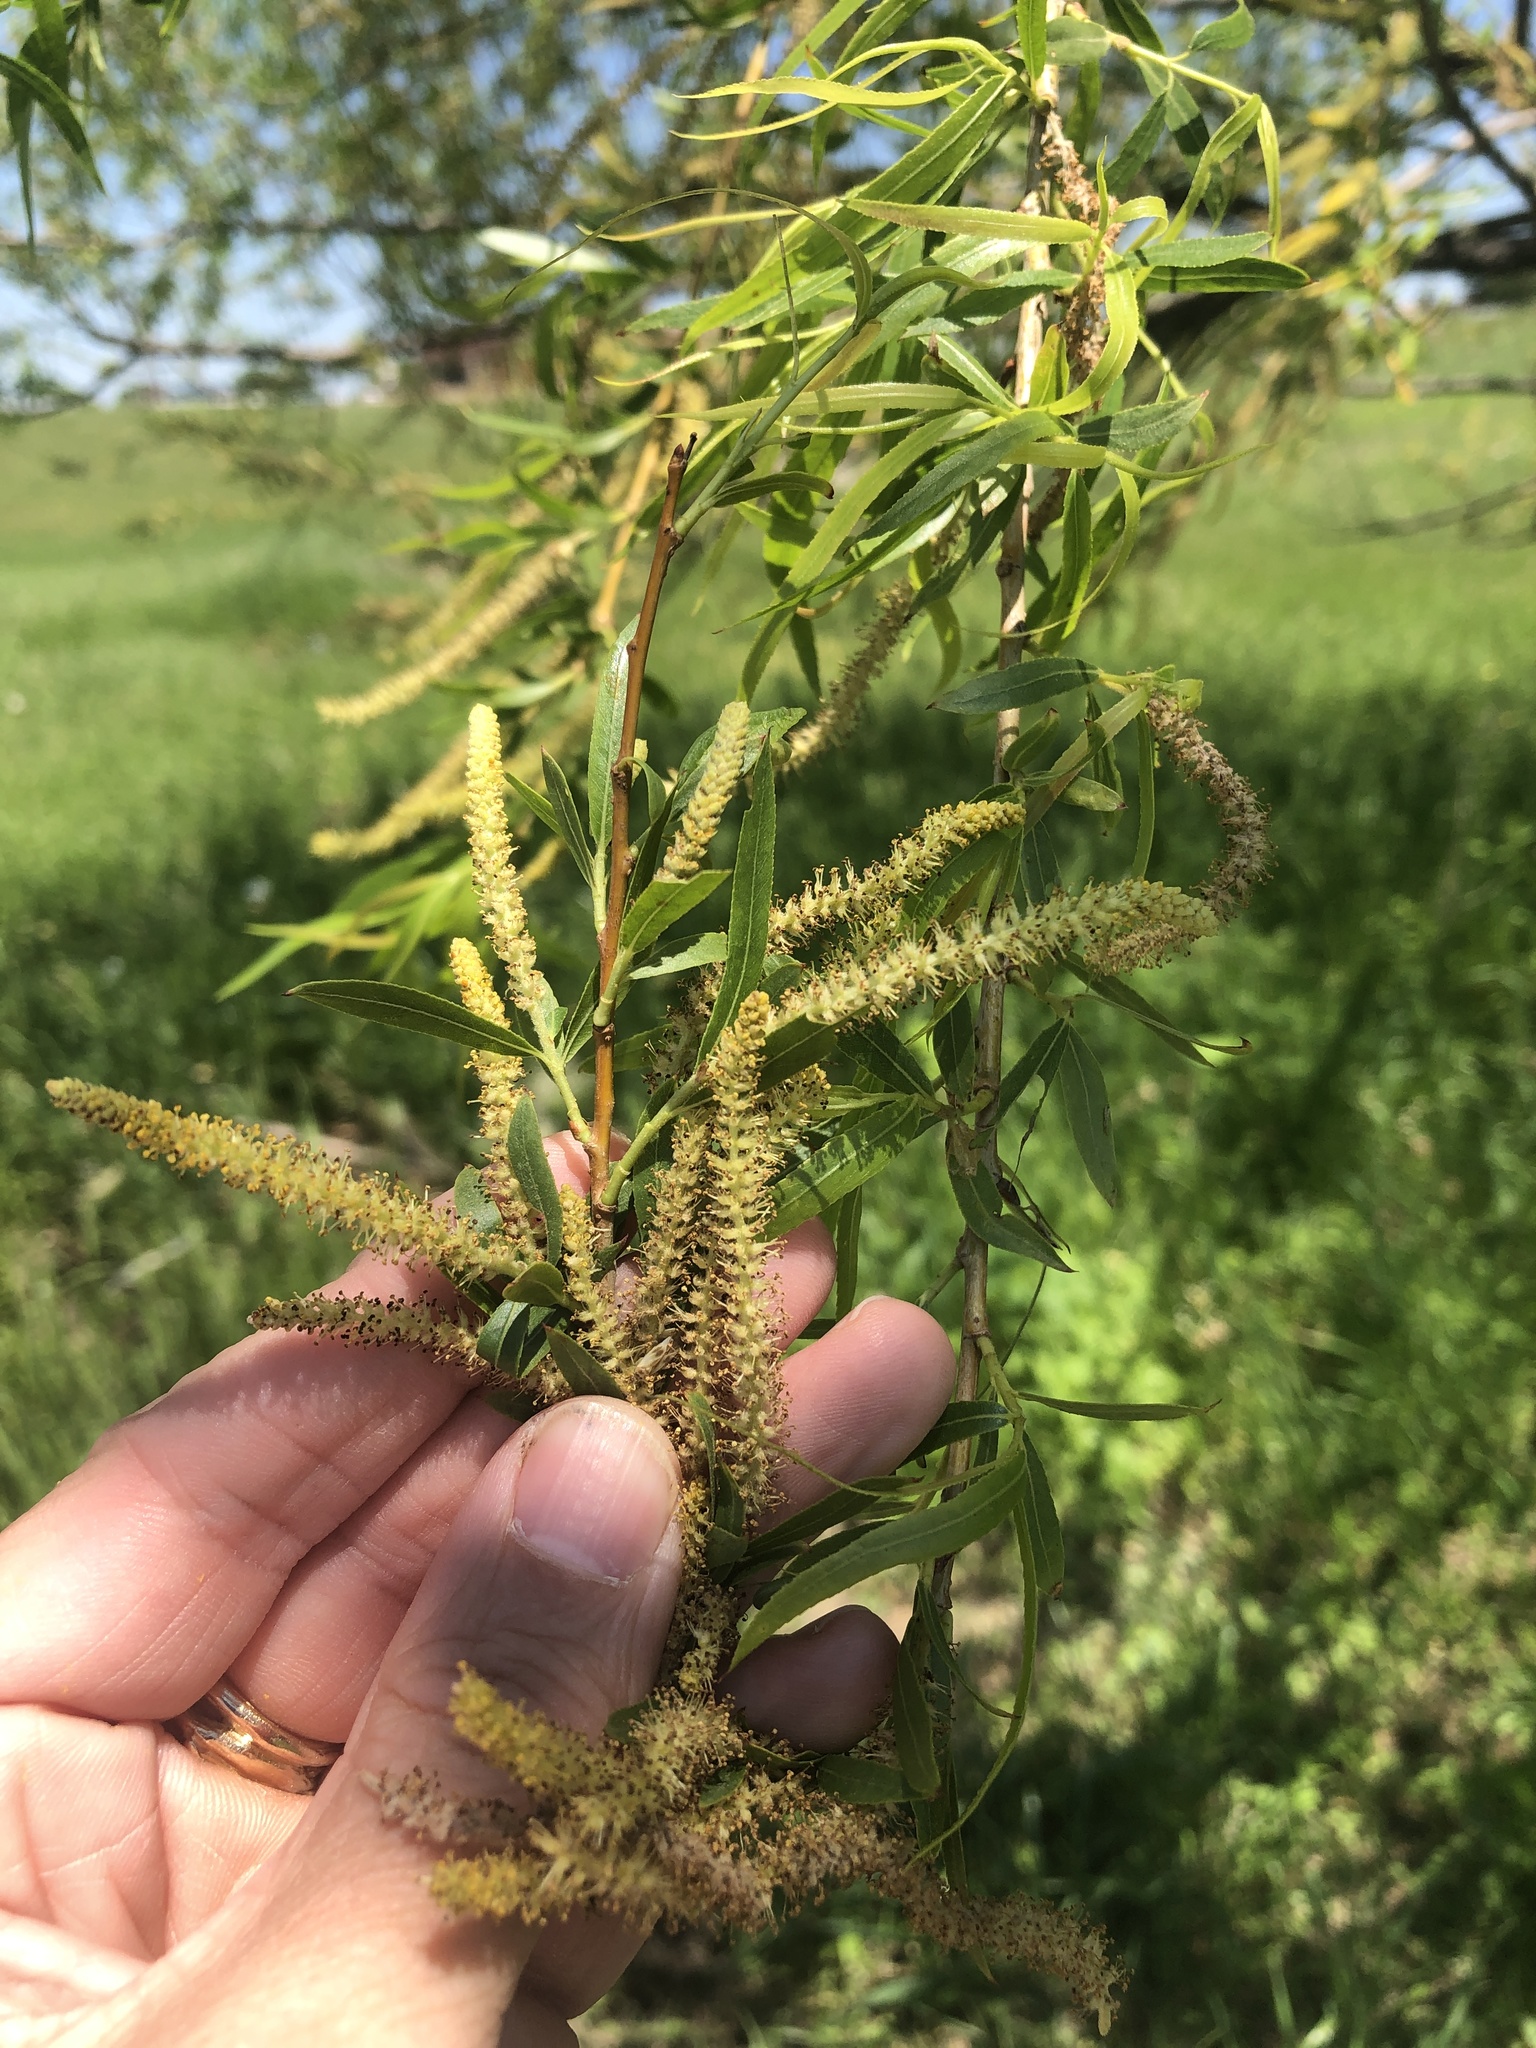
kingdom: Plantae
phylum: Tracheophyta
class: Magnoliopsida
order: Malpighiales
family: Salicaceae
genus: Salix
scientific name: Salix nigra
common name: Black willow
